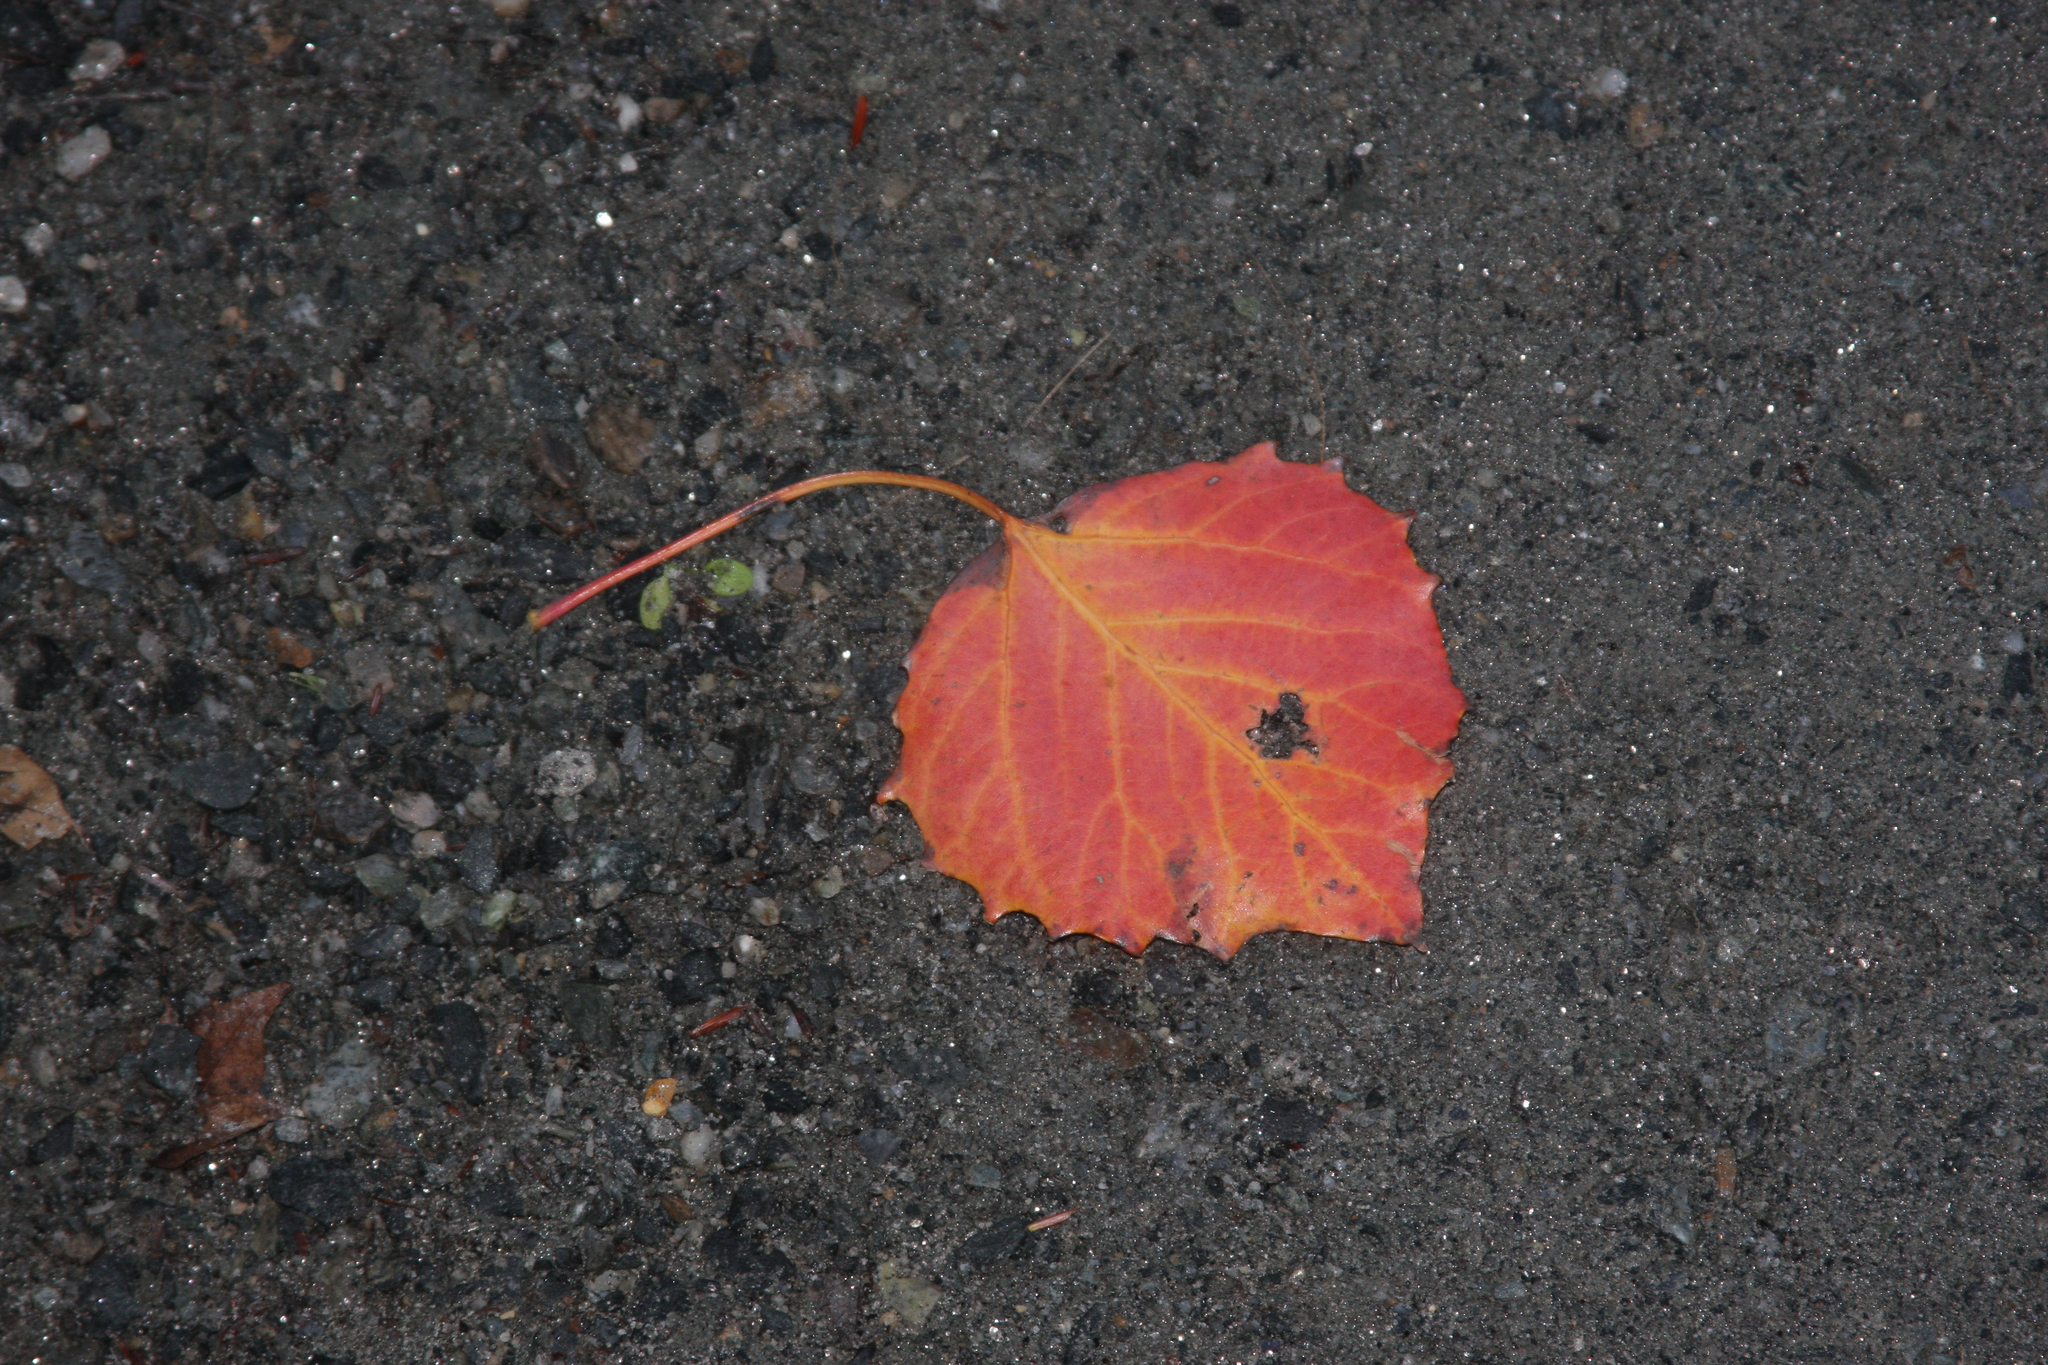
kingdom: Plantae
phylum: Tracheophyta
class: Magnoliopsida
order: Malpighiales
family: Salicaceae
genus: Populus
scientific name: Populus grandidentata
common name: Bigtooth aspen
